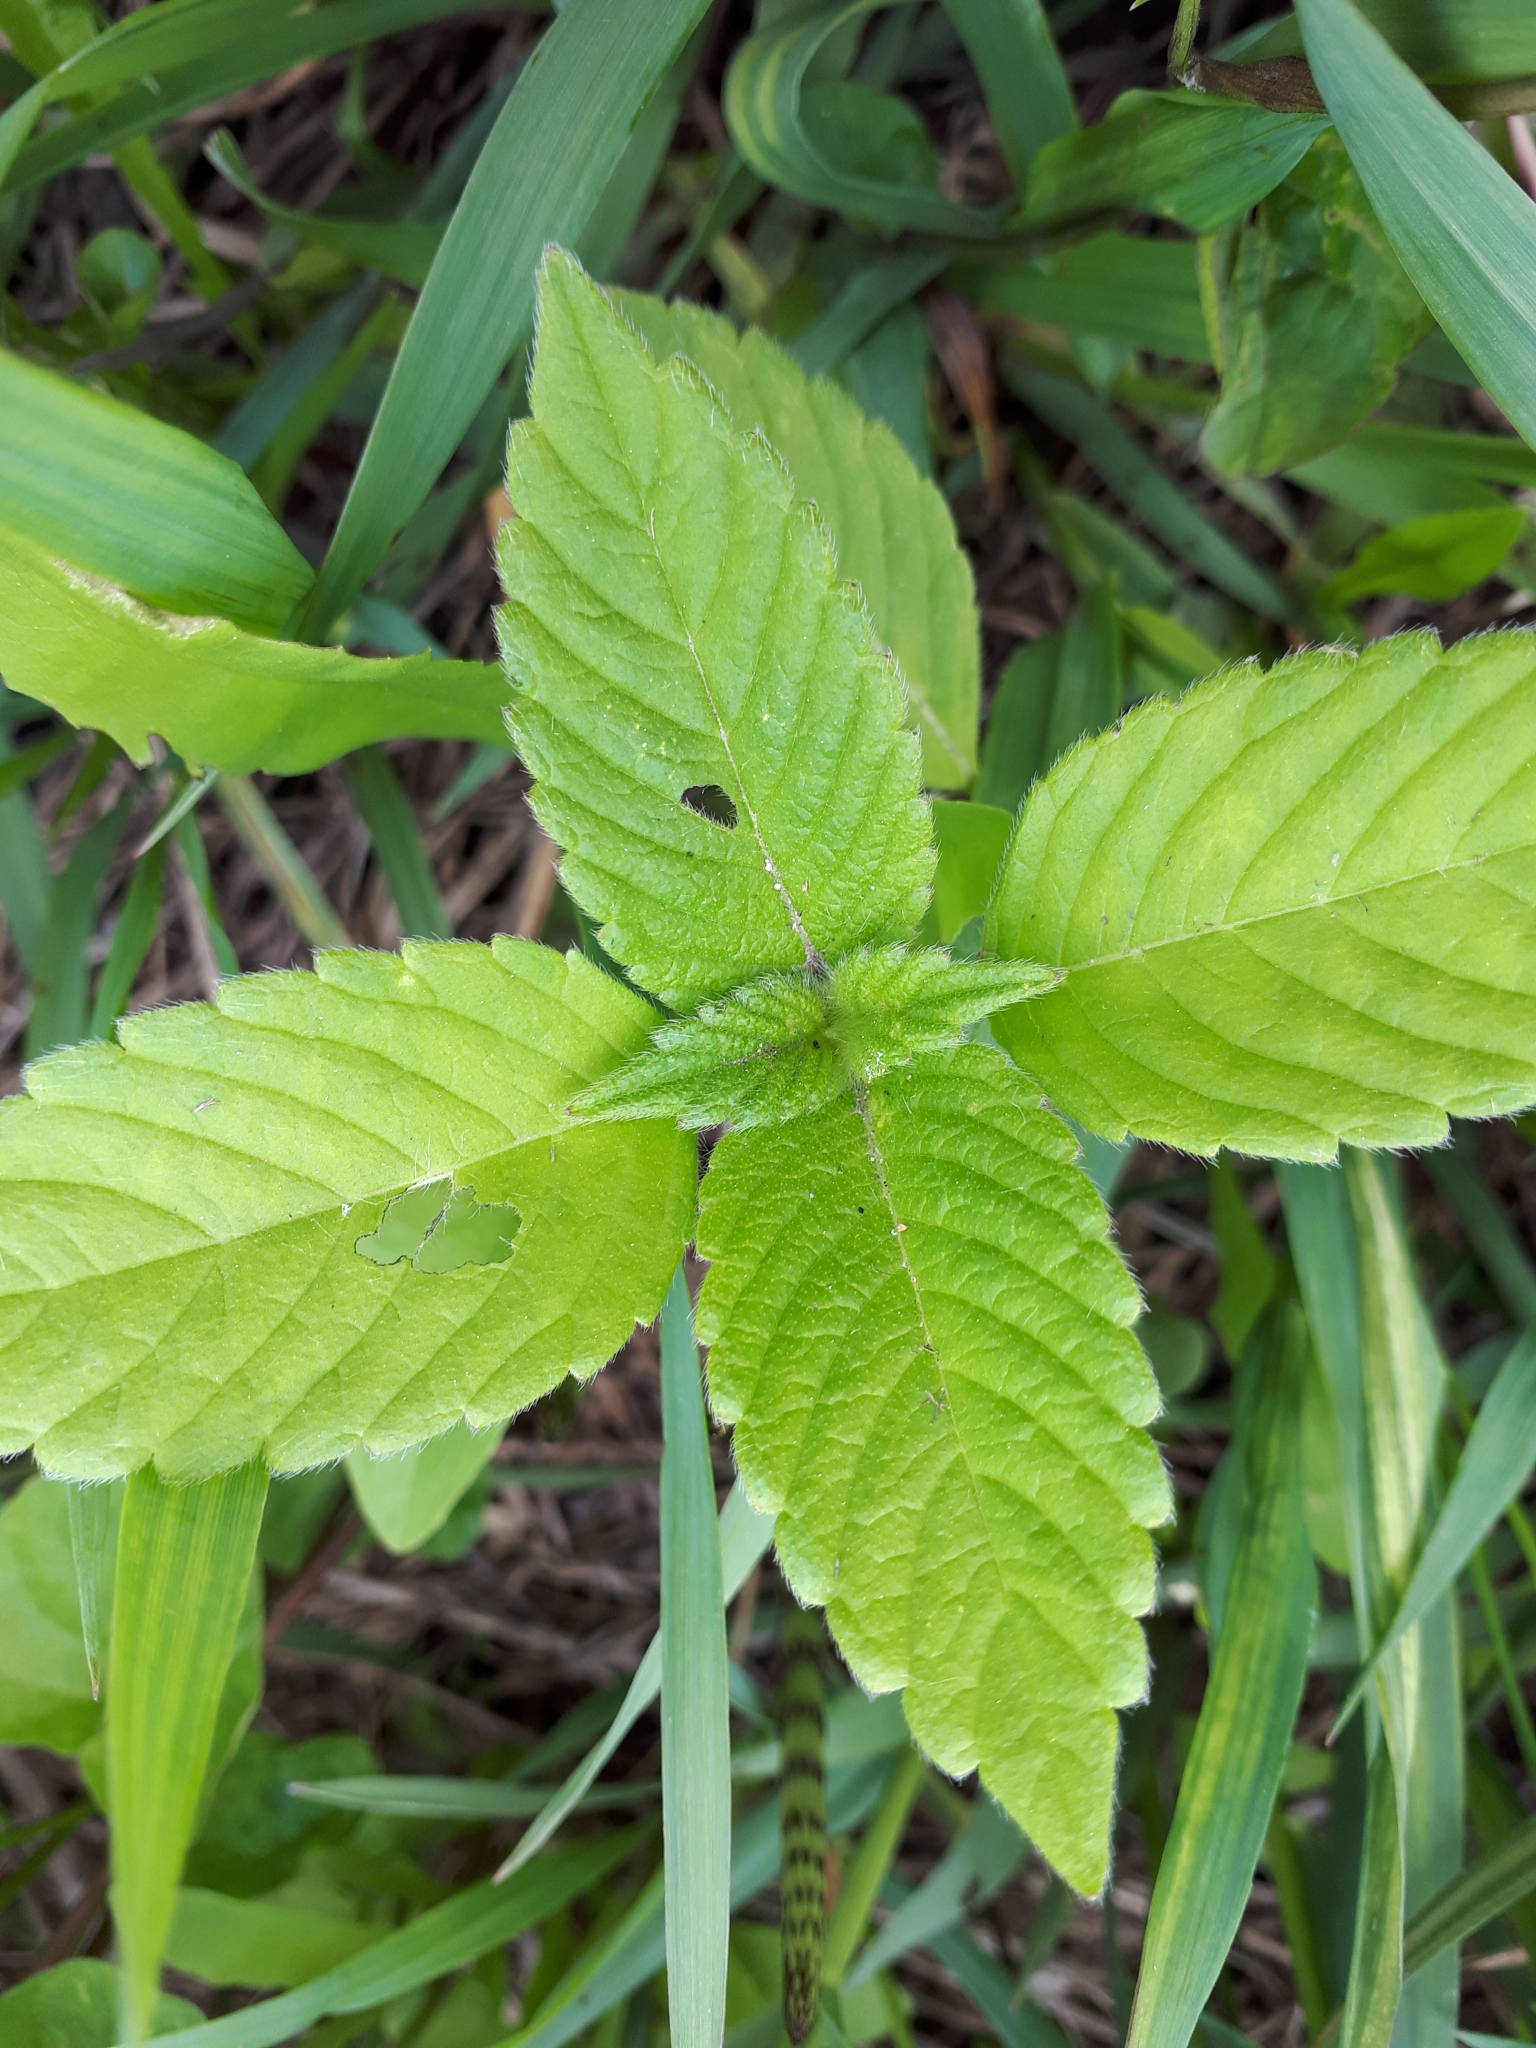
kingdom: Plantae
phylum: Tracheophyta
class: Magnoliopsida
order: Lamiales
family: Lamiaceae
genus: Galeopsis
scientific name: Galeopsis
